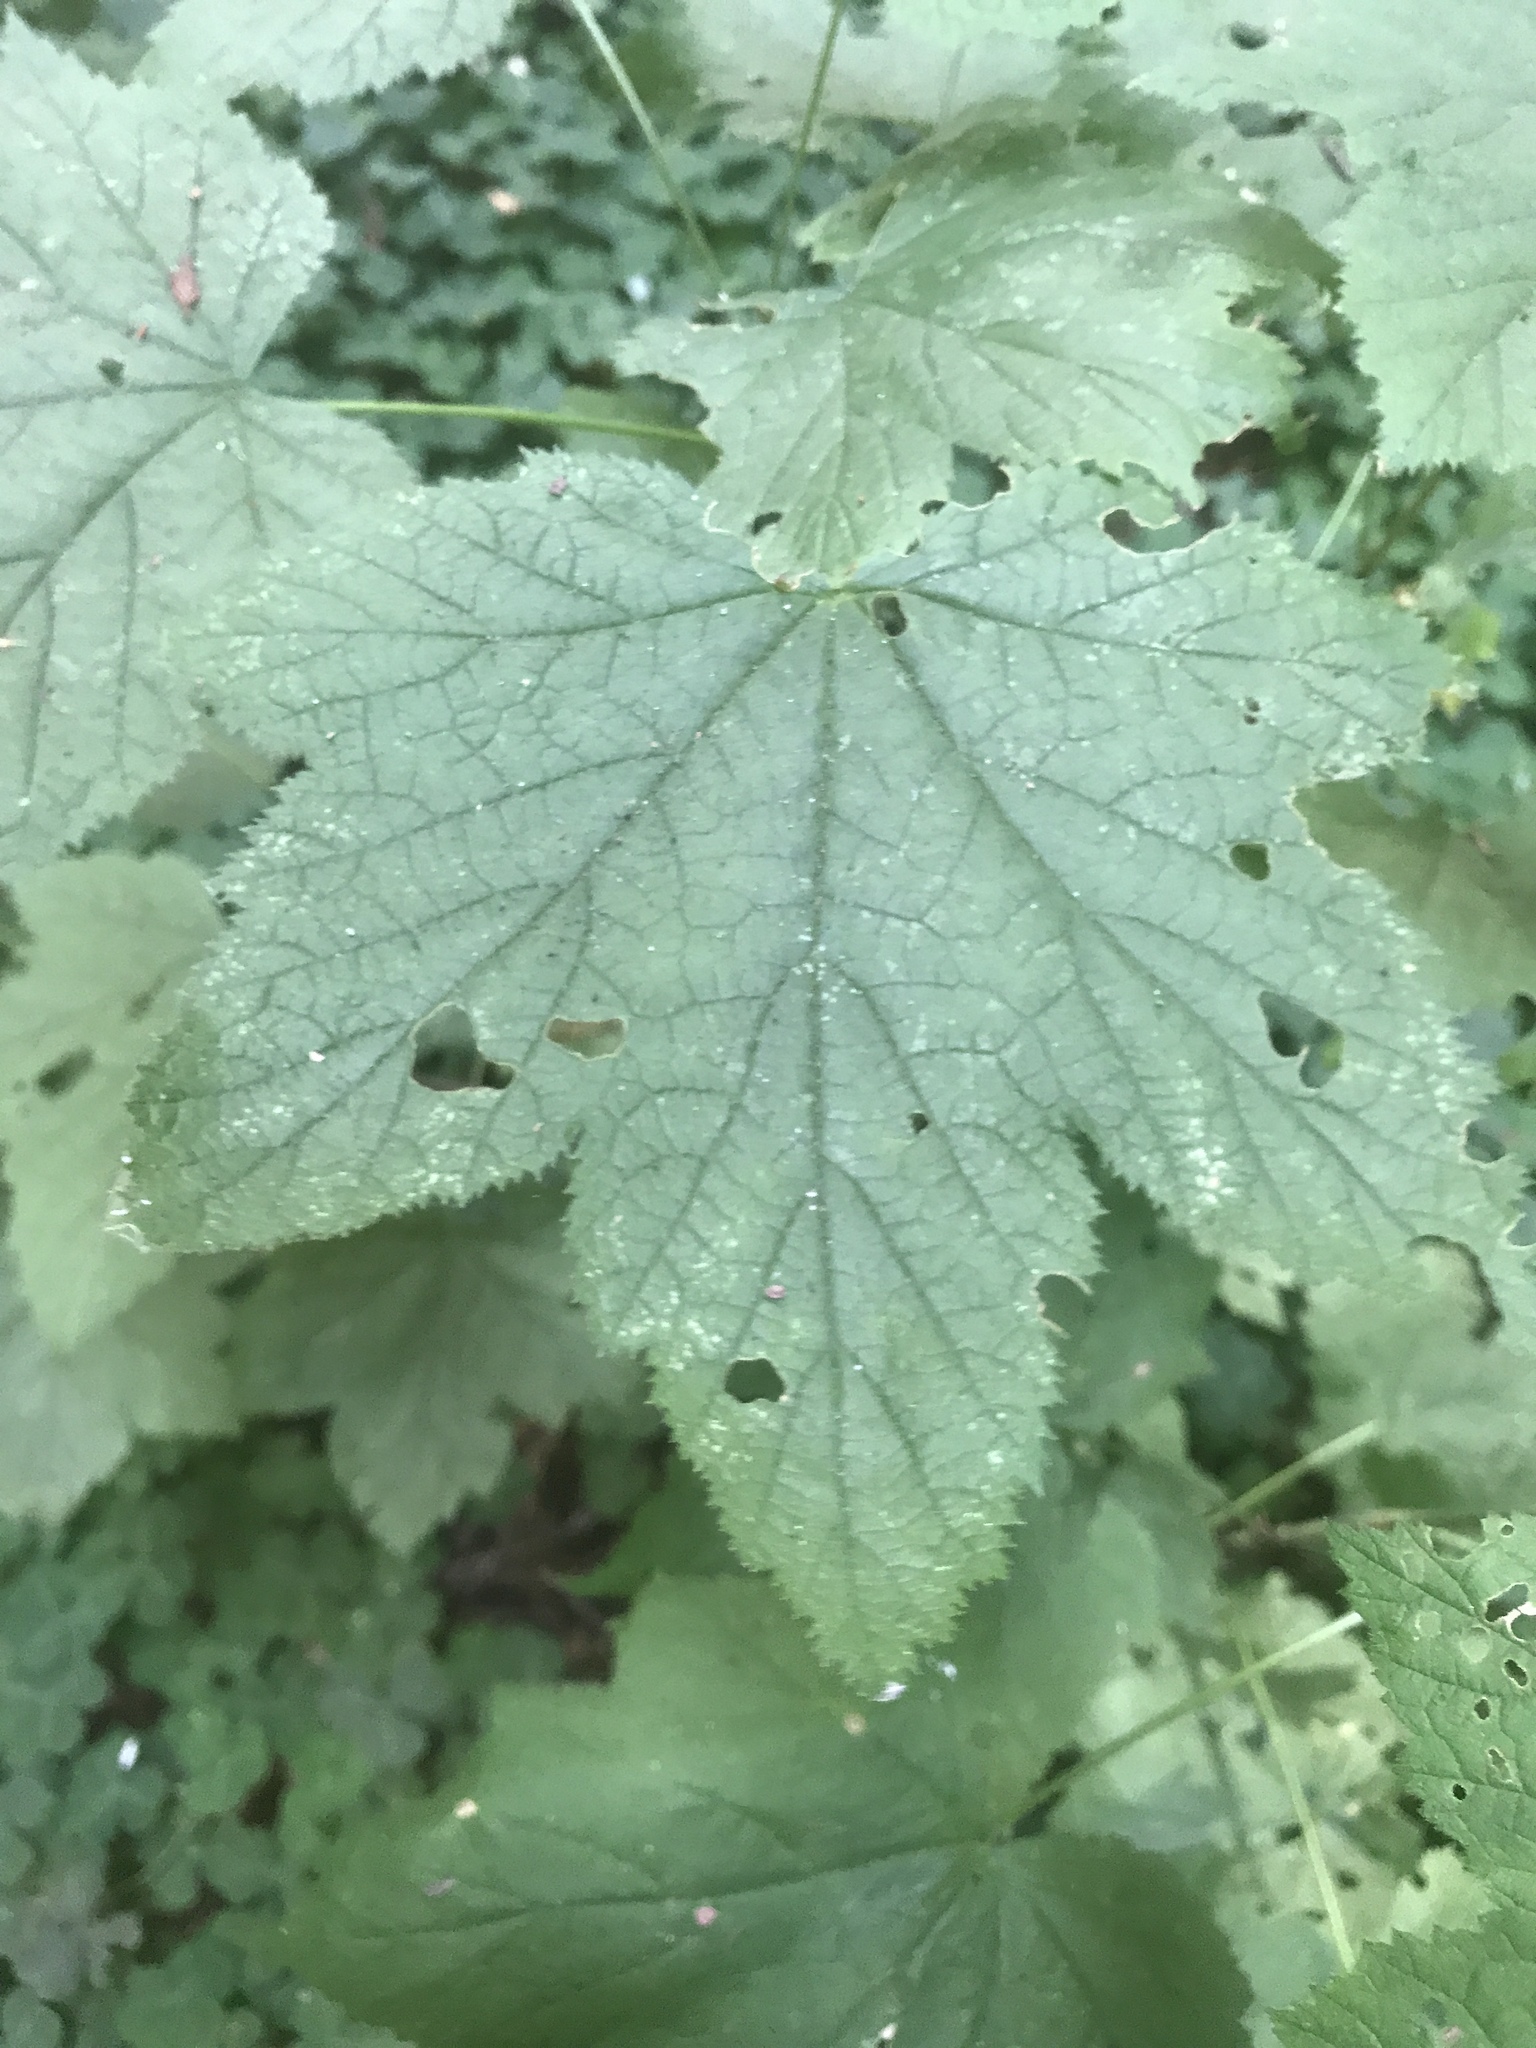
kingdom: Plantae
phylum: Tracheophyta
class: Magnoliopsida
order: Rosales
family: Rosaceae
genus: Rubus
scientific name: Rubus parviflorus
